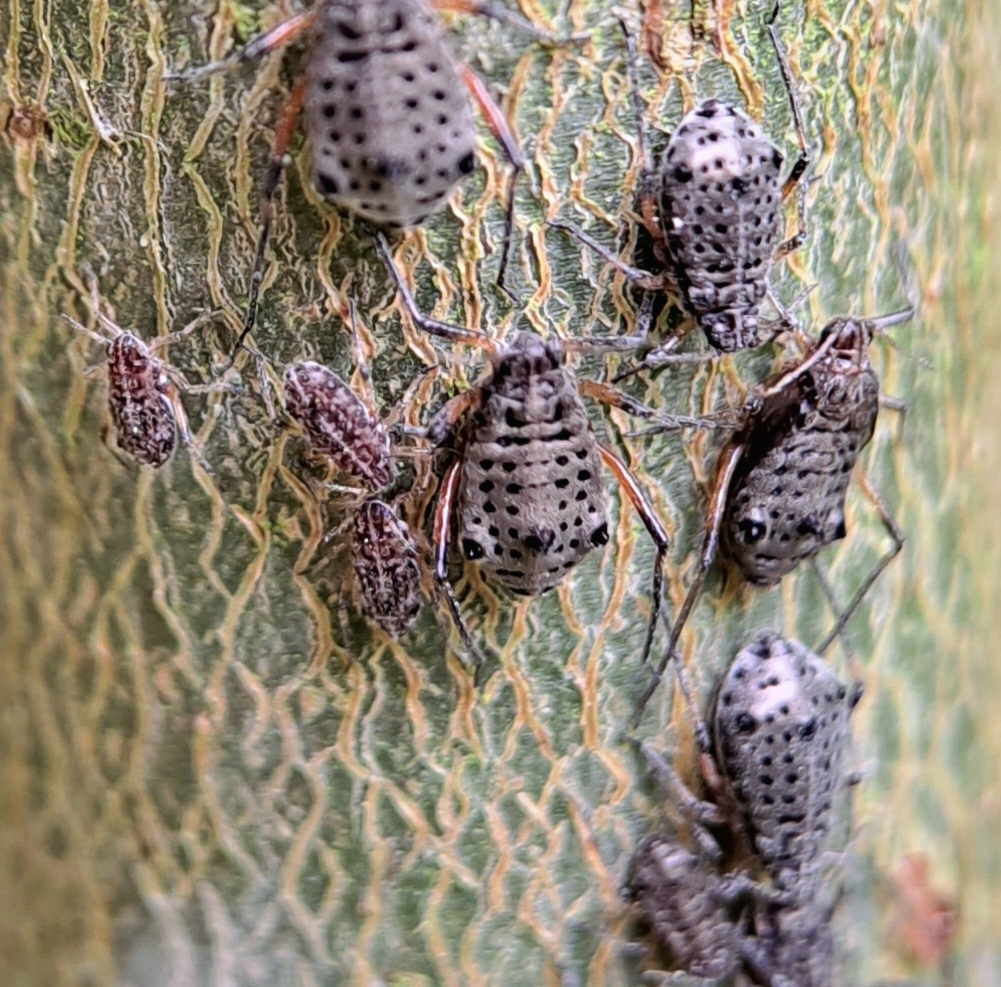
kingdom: Animalia
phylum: Arthropoda
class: Insecta
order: Hemiptera
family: Aphididae
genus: Tuberolachnus
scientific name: Tuberolachnus salignus
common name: Giant willow aphid
